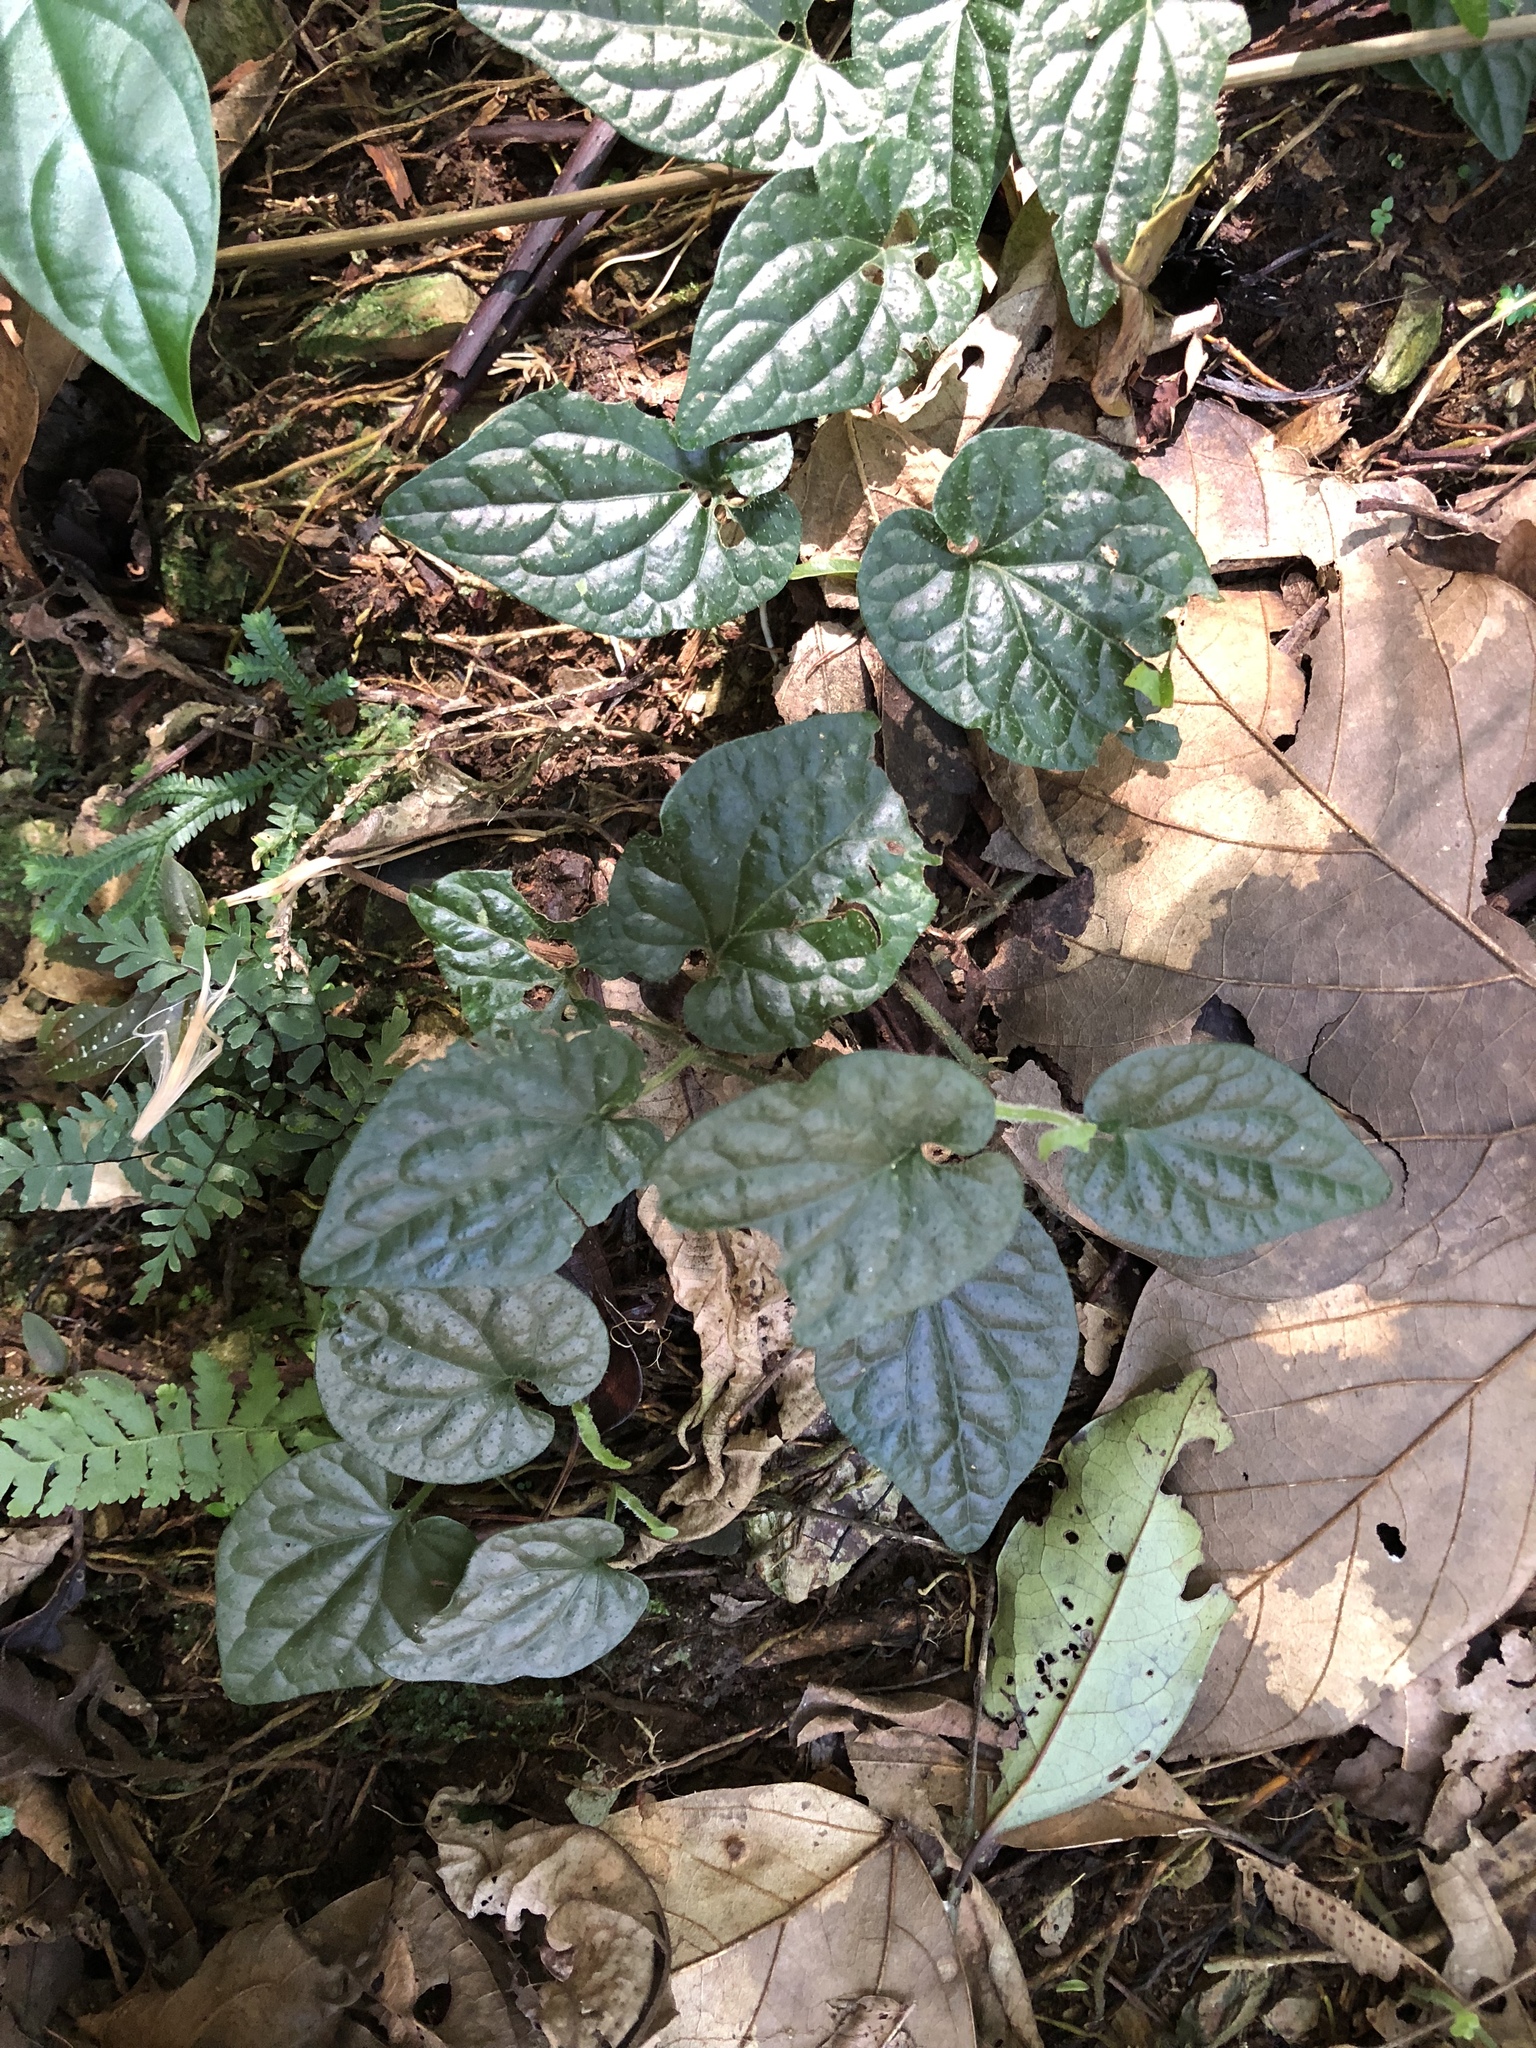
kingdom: Plantae
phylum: Tracheophyta
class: Magnoliopsida
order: Piperales
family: Piperaceae
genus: Piper
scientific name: Piper sintenense
